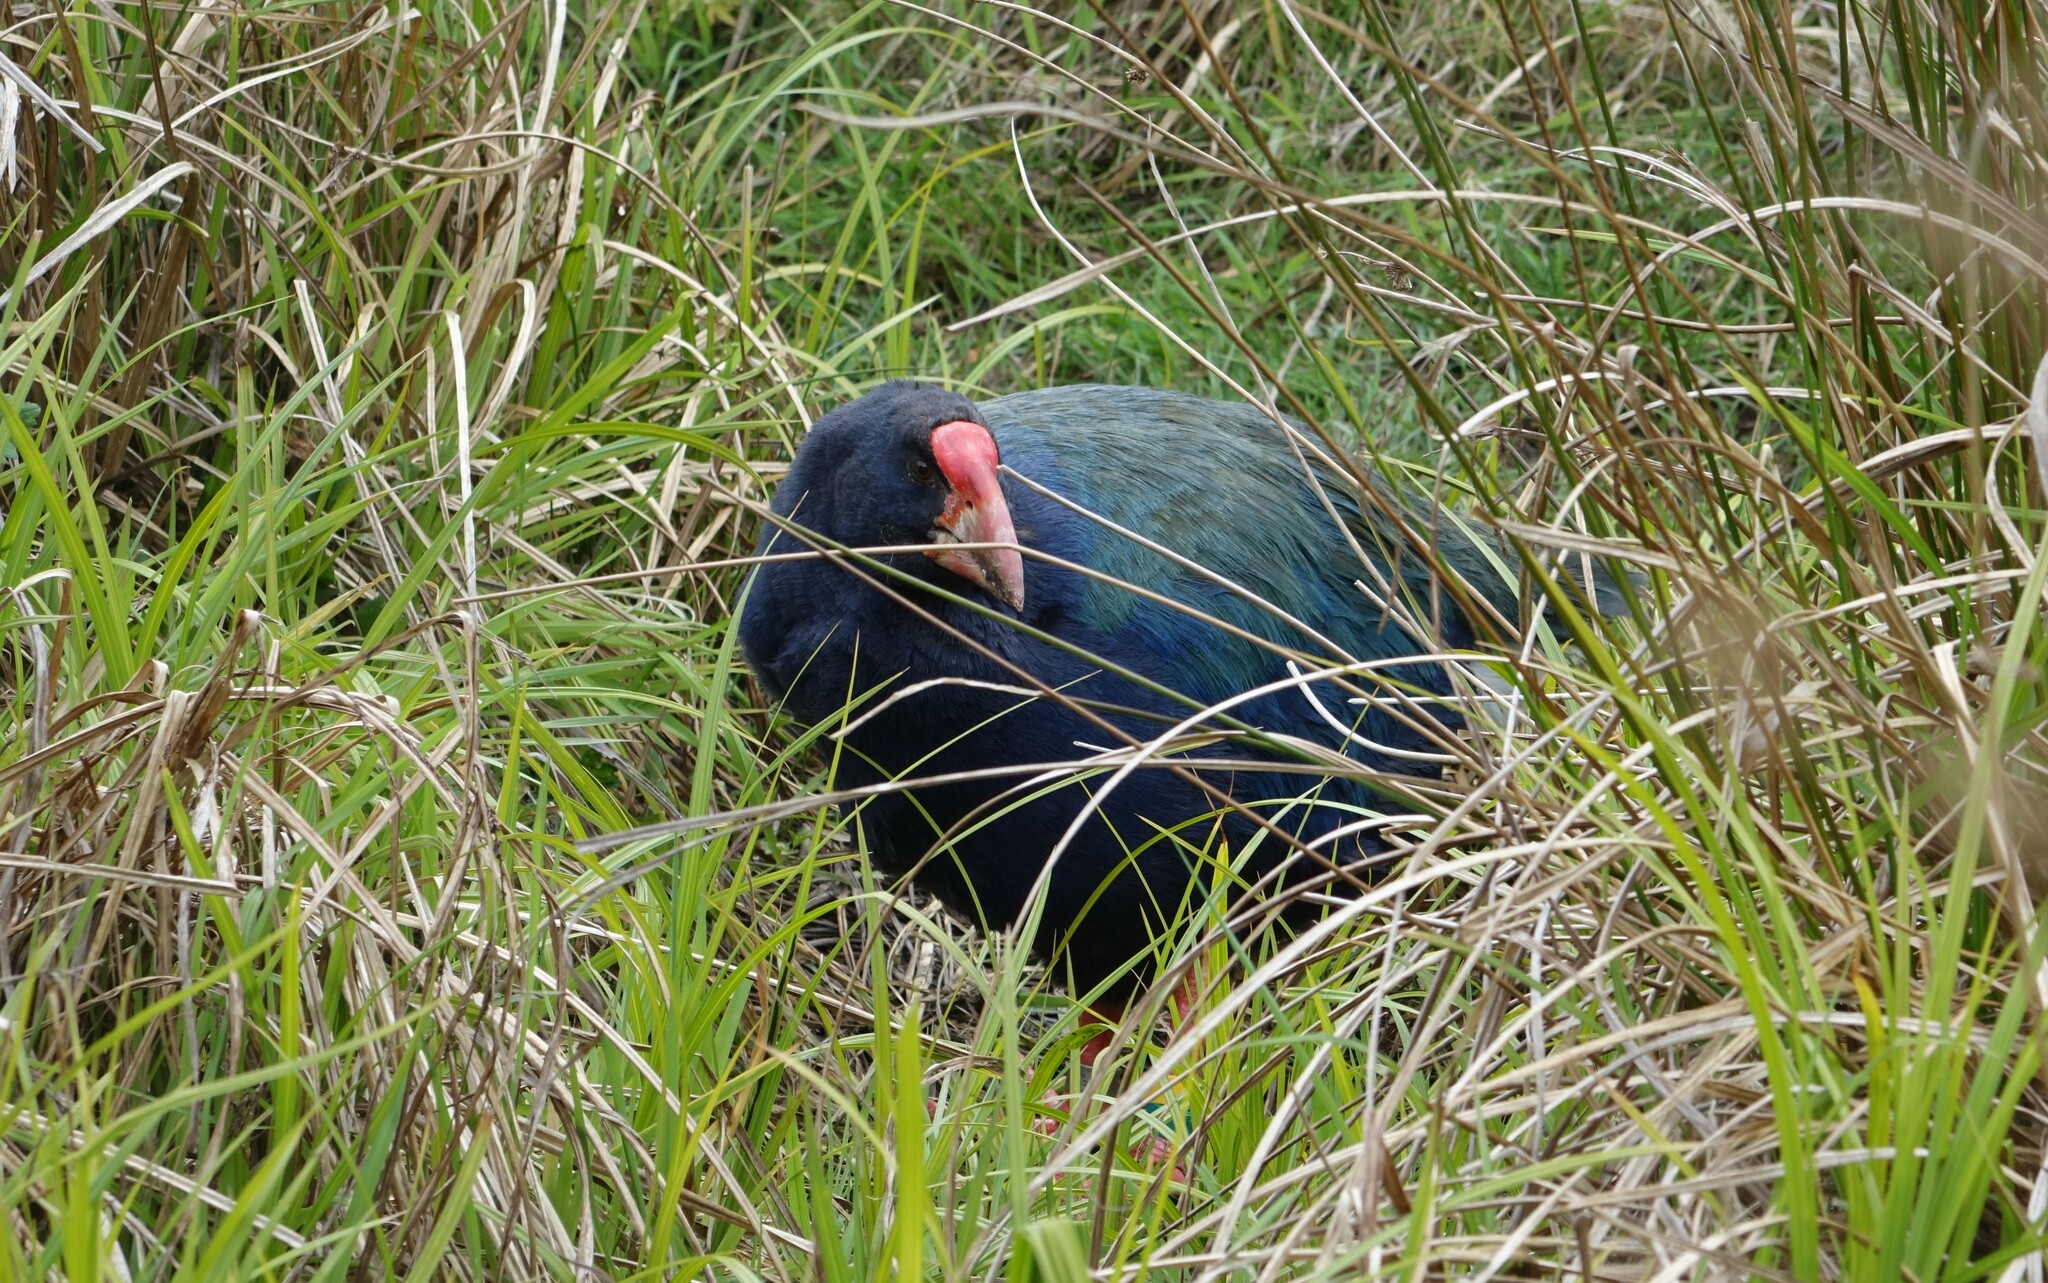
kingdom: Animalia
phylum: Chordata
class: Aves
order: Gruiformes
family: Rallidae
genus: Porphyrio
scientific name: Porphyrio hochstetteri
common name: South island takahe
